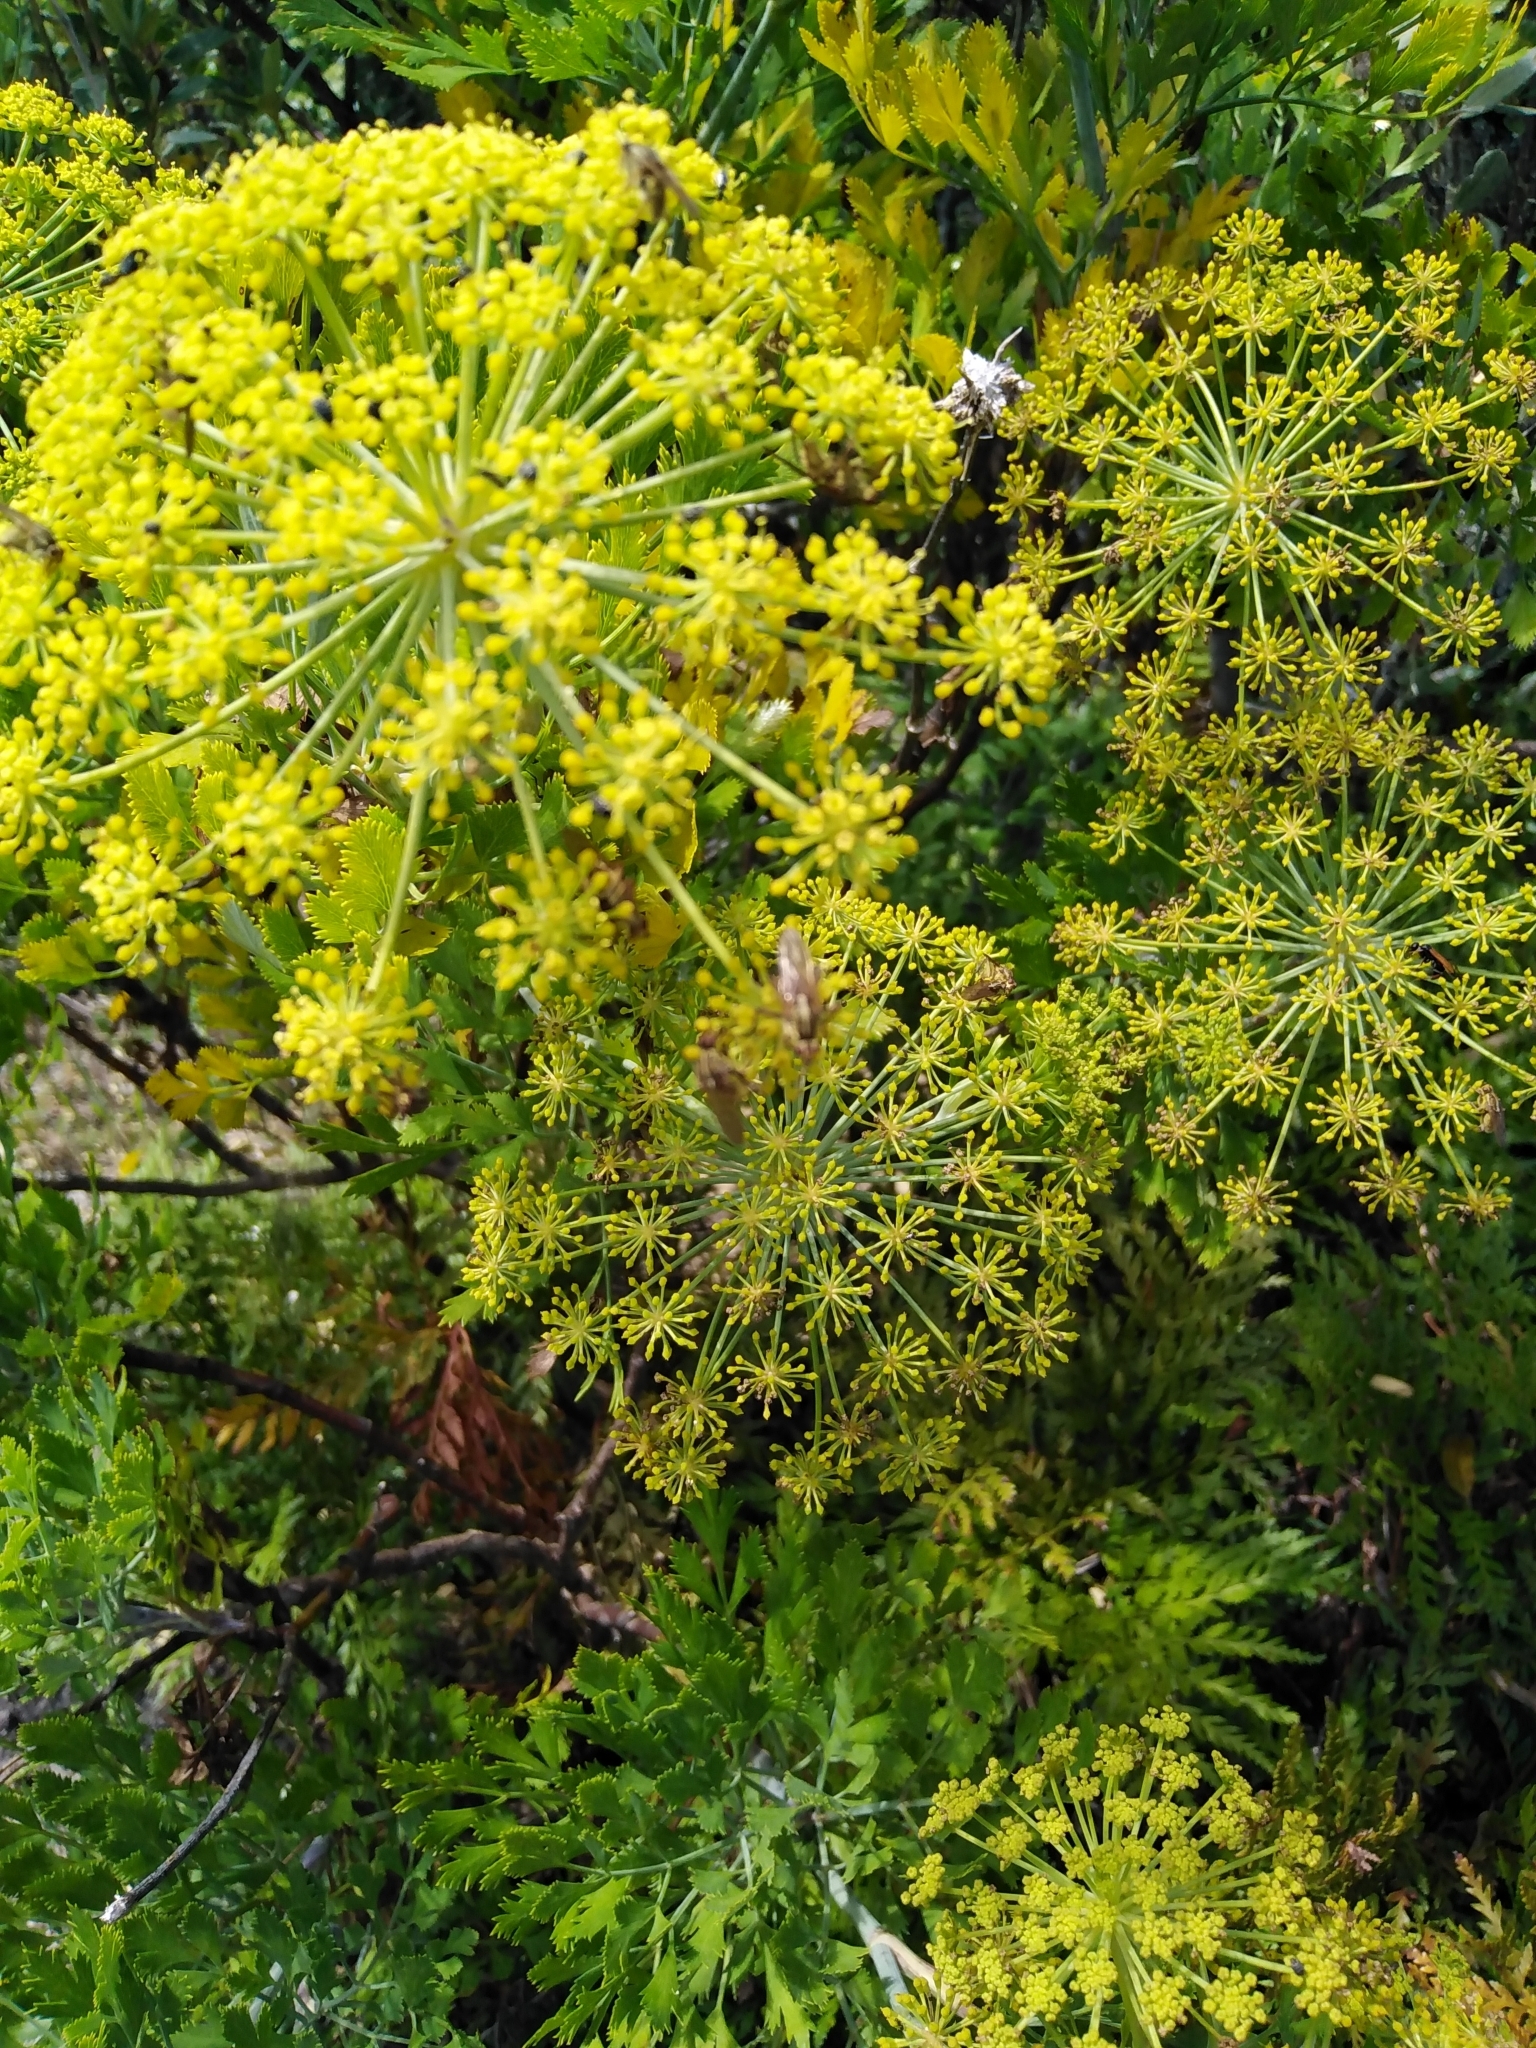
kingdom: Plantae
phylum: Tracheophyta
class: Magnoliopsida
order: Apiales
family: Apiaceae
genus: Notobubon
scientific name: Notobubon galbanum
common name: Blisterbush
